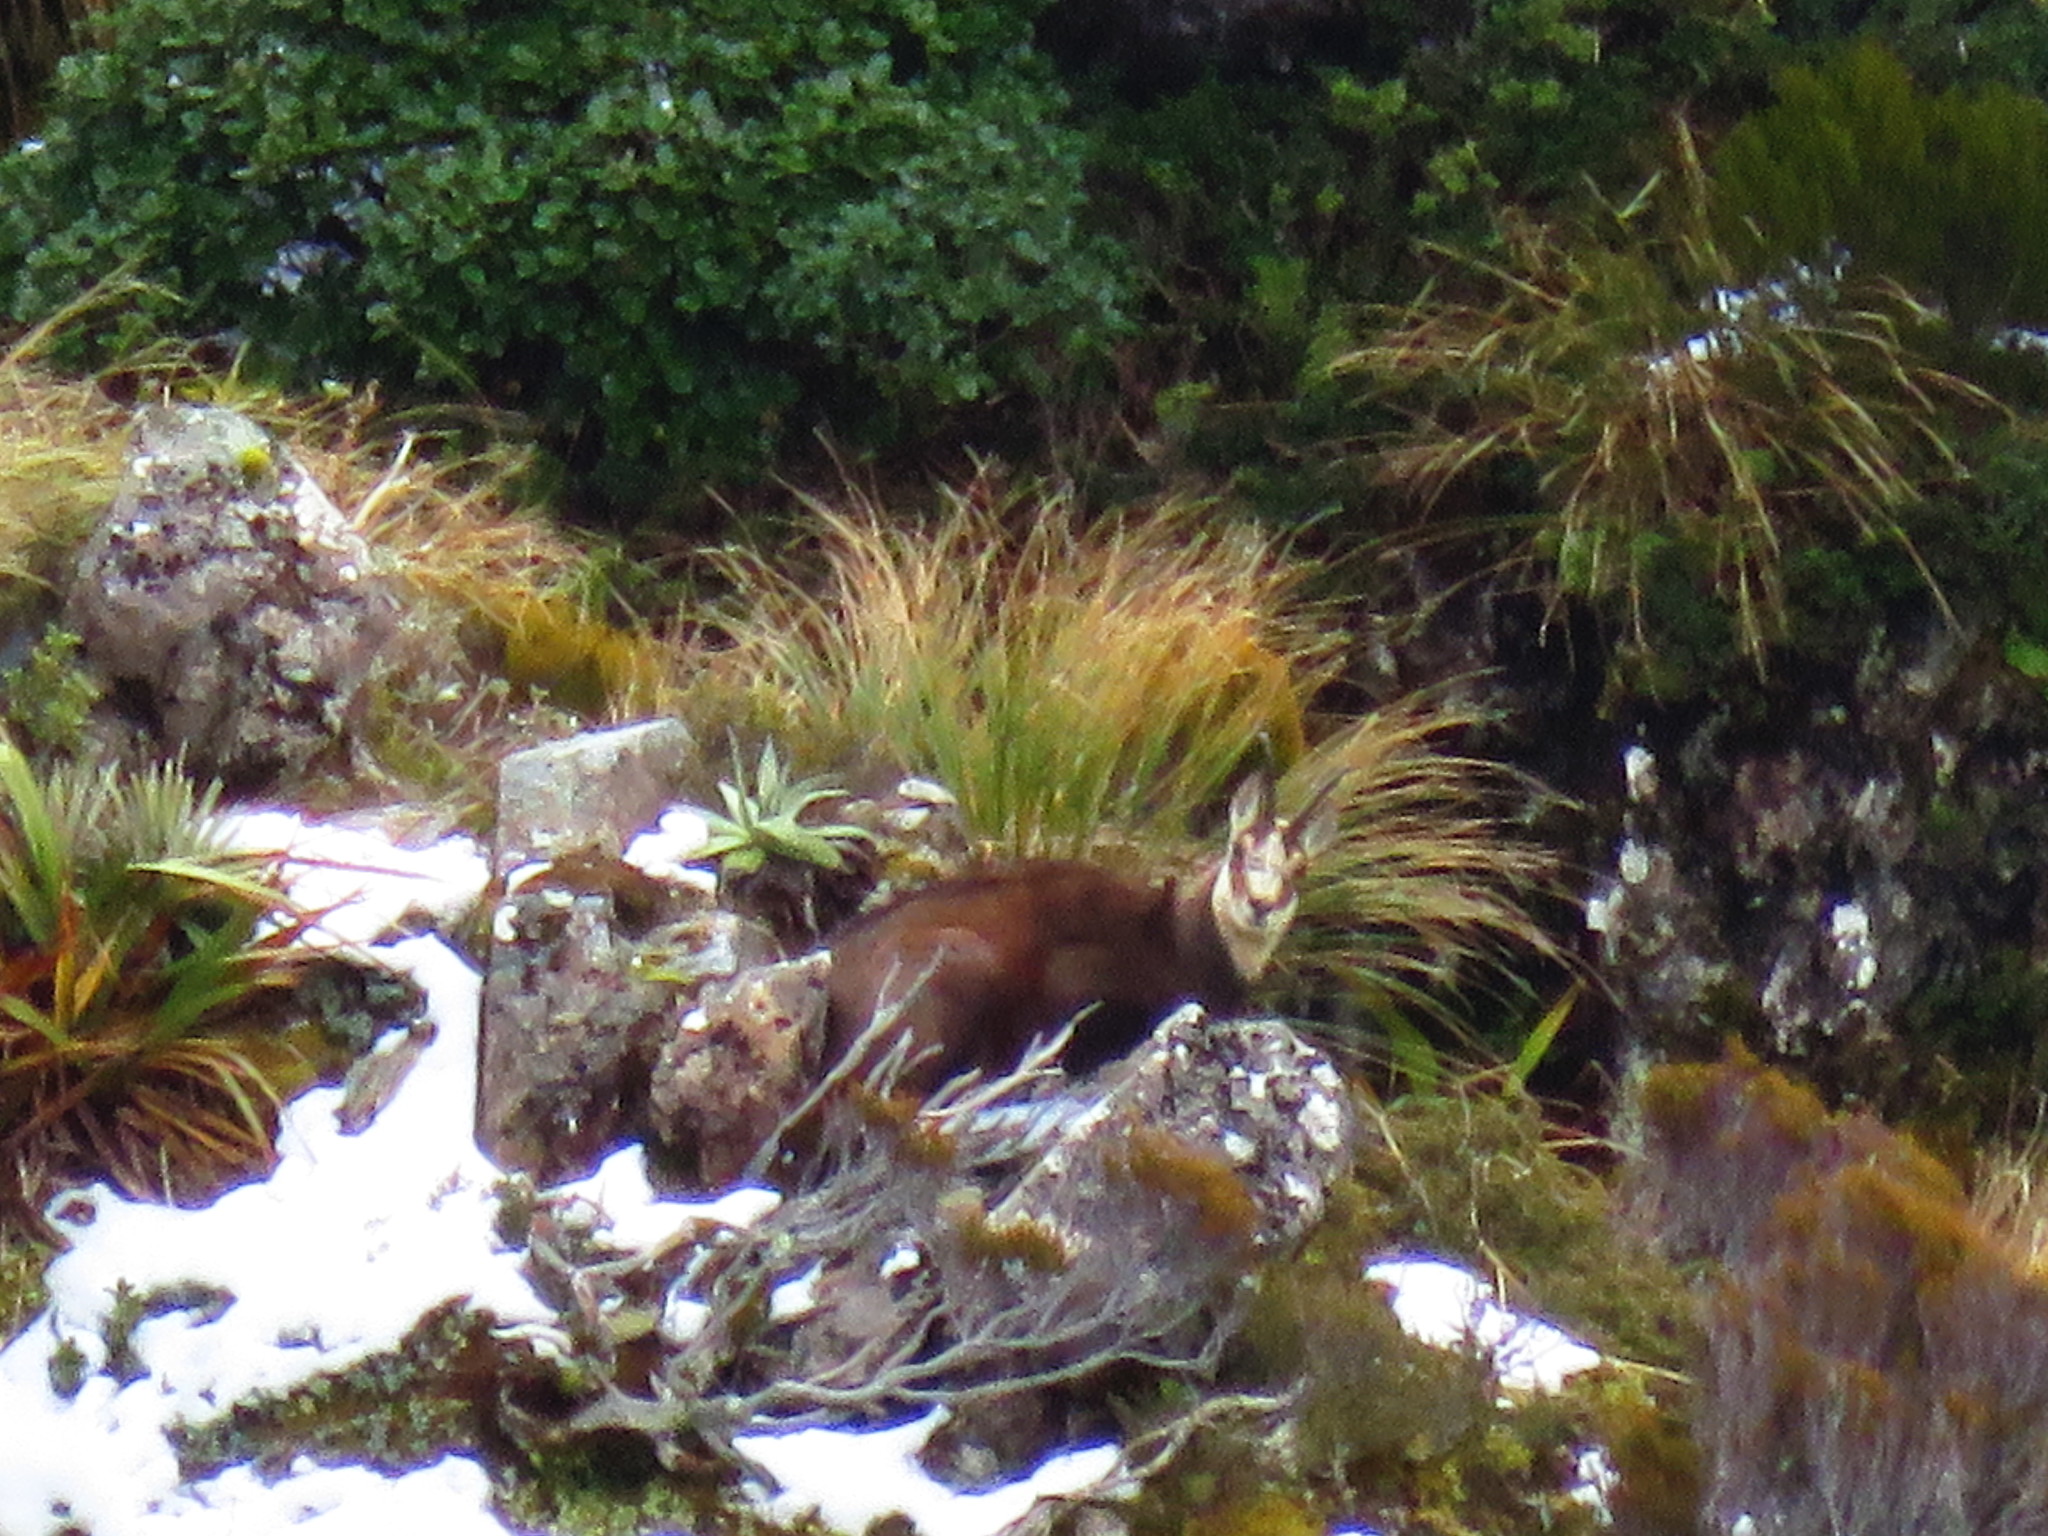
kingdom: Animalia
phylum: Chordata
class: Mammalia
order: Artiodactyla
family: Bovidae
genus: Rupicapra
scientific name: Rupicapra rupicapra
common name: Chamois
